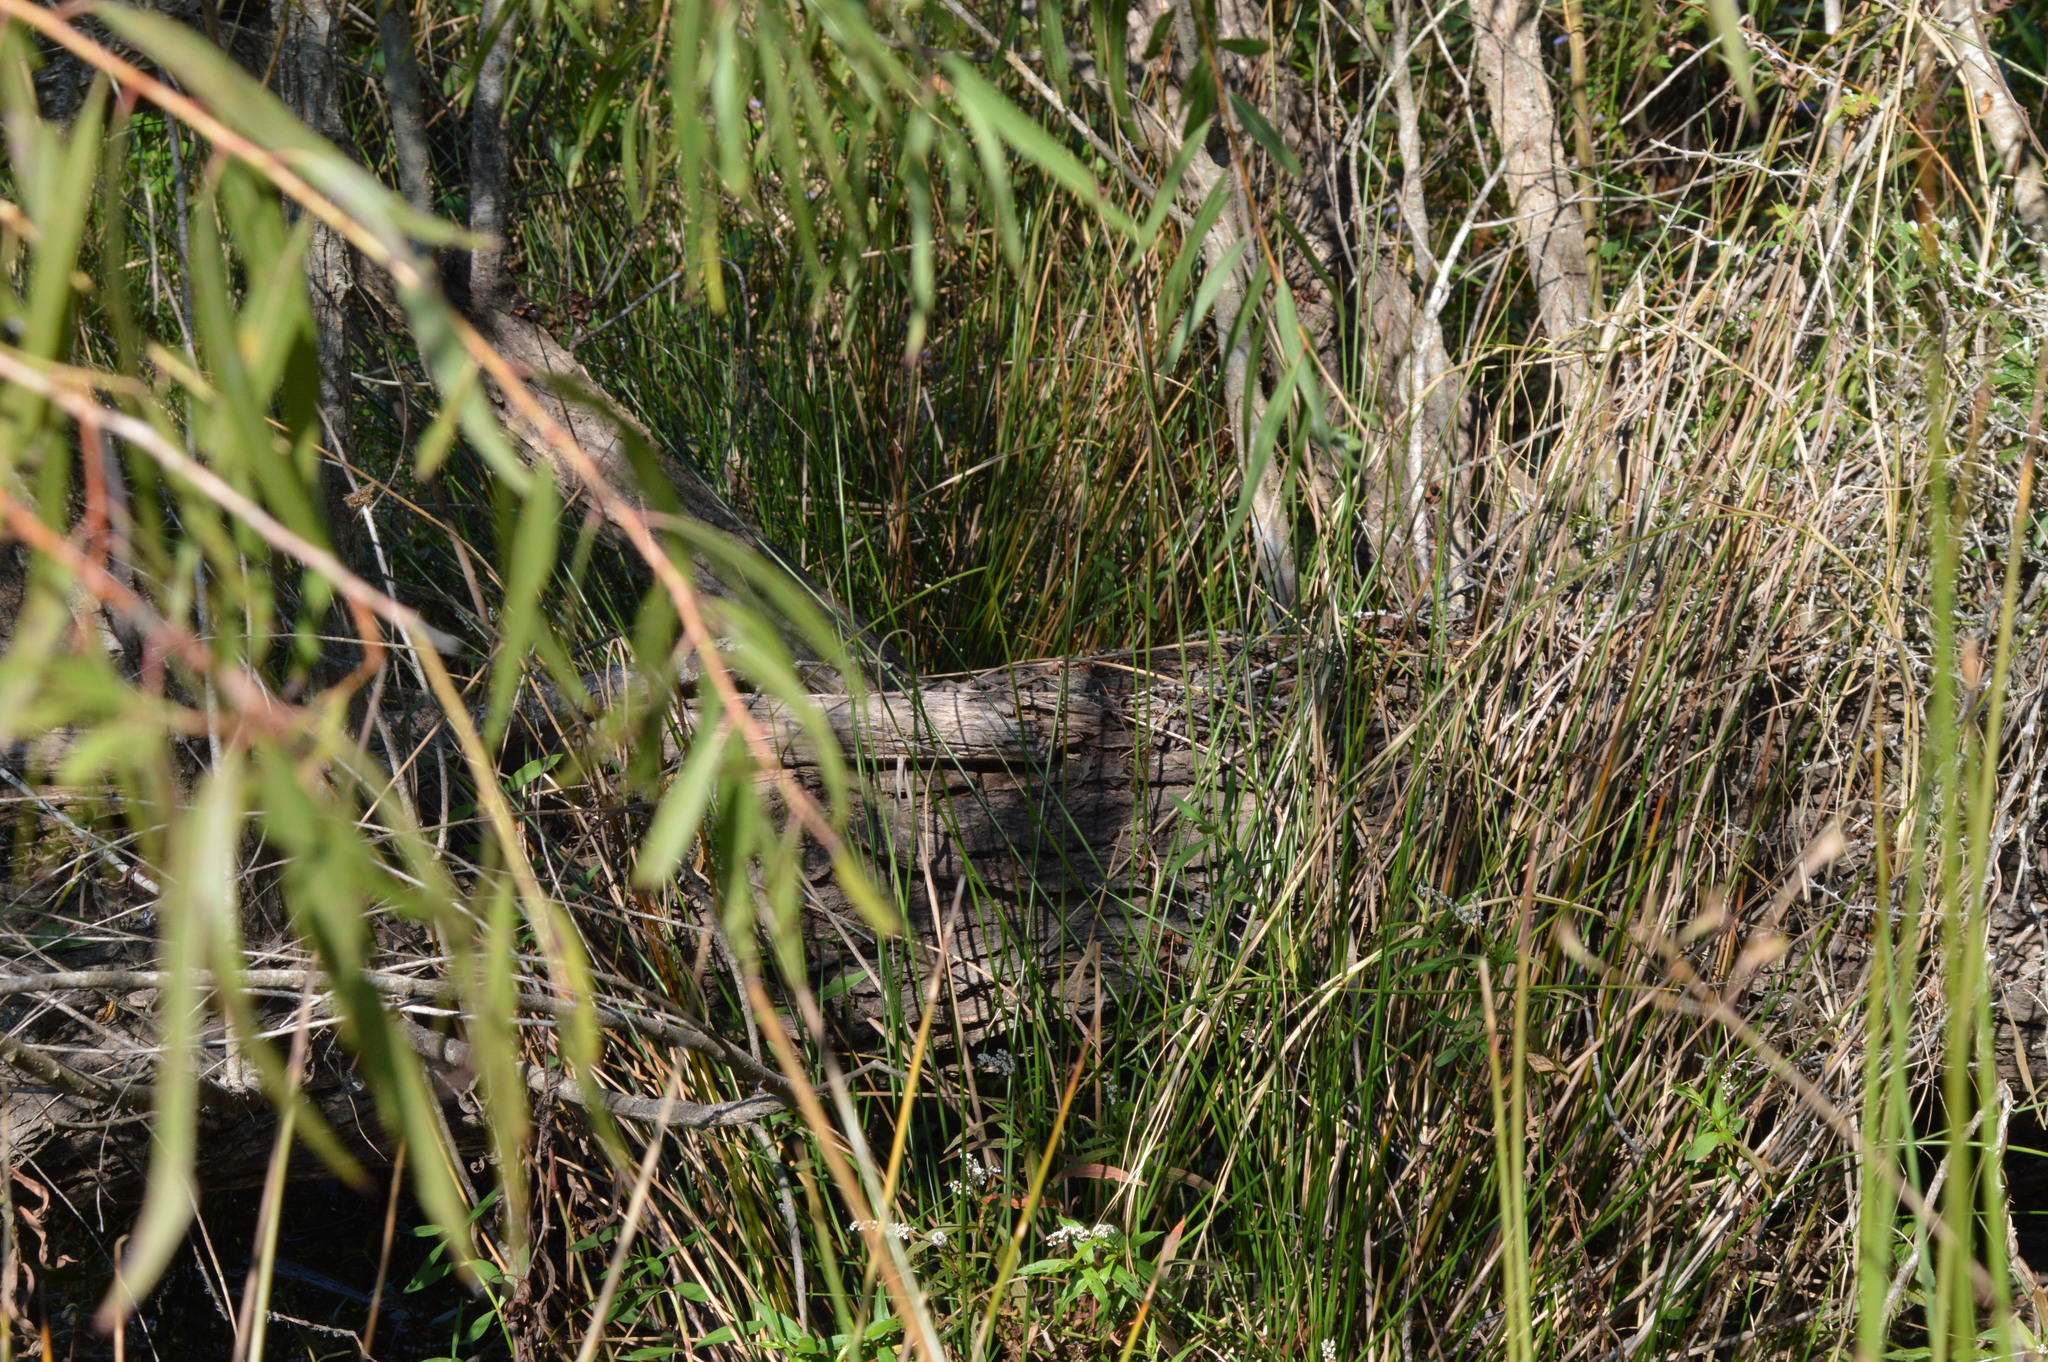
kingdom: Plantae
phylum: Tracheophyta
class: Magnoliopsida
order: Malpighiales
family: Salicaceae
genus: Salix
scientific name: Salix nigra
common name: Black willow
